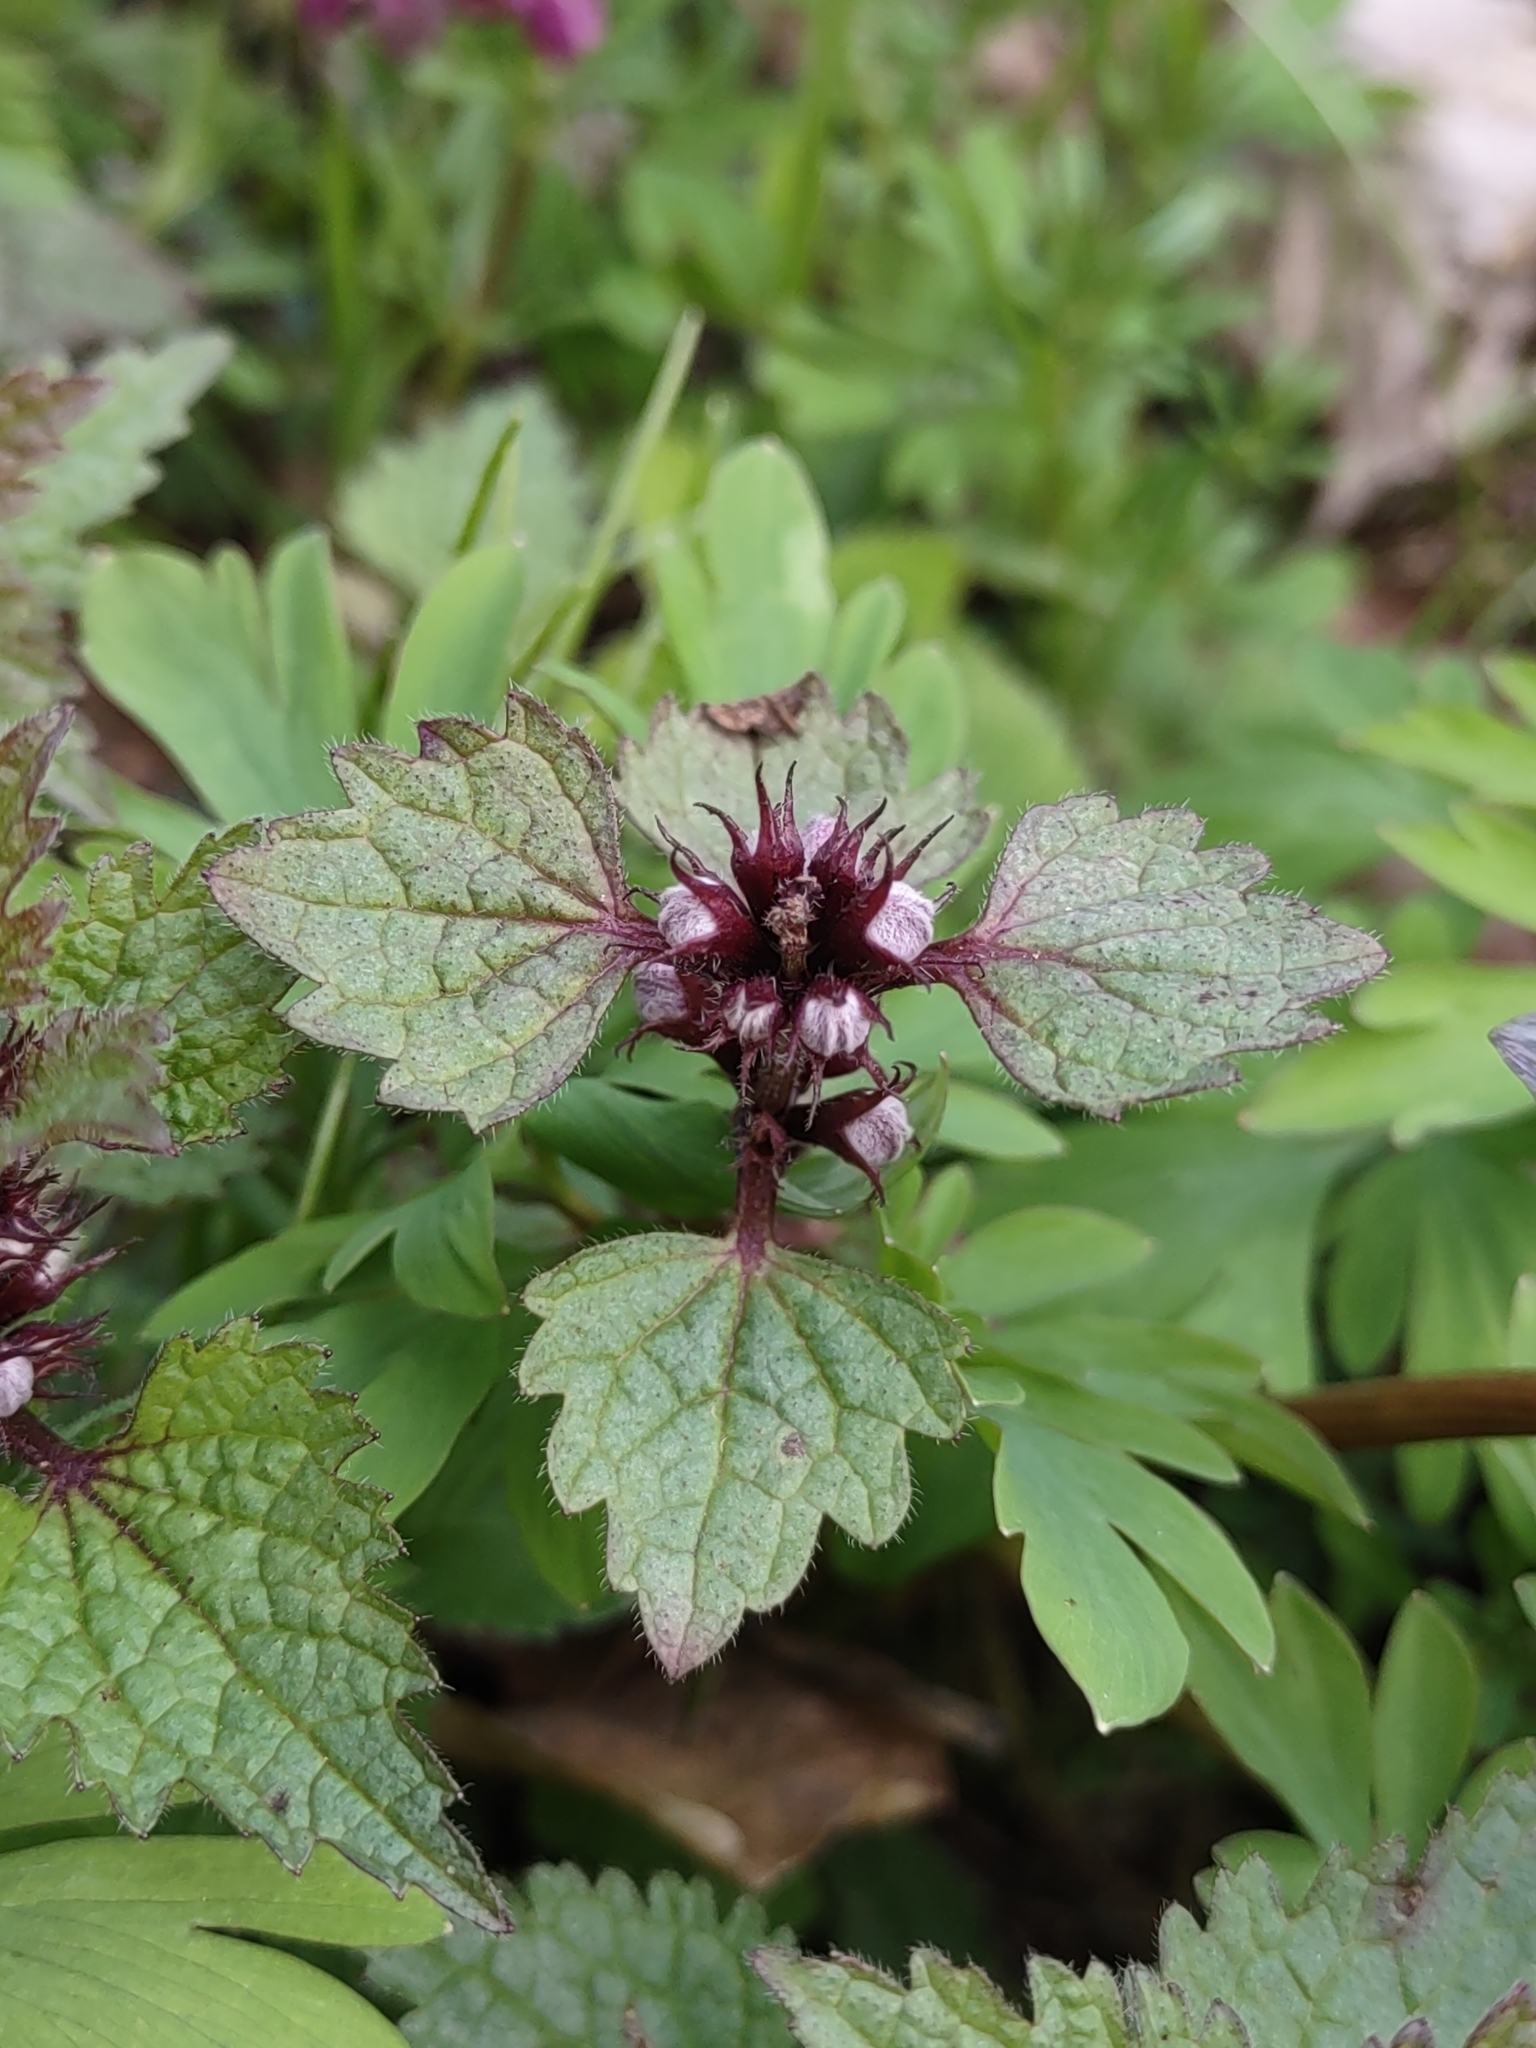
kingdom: Plantae
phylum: Tracheophyta
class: Magnoliopsida
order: Lamiales
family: Lamiaceae
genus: Lamium
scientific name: Lamium maculatum
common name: Spotted dead-nettle
